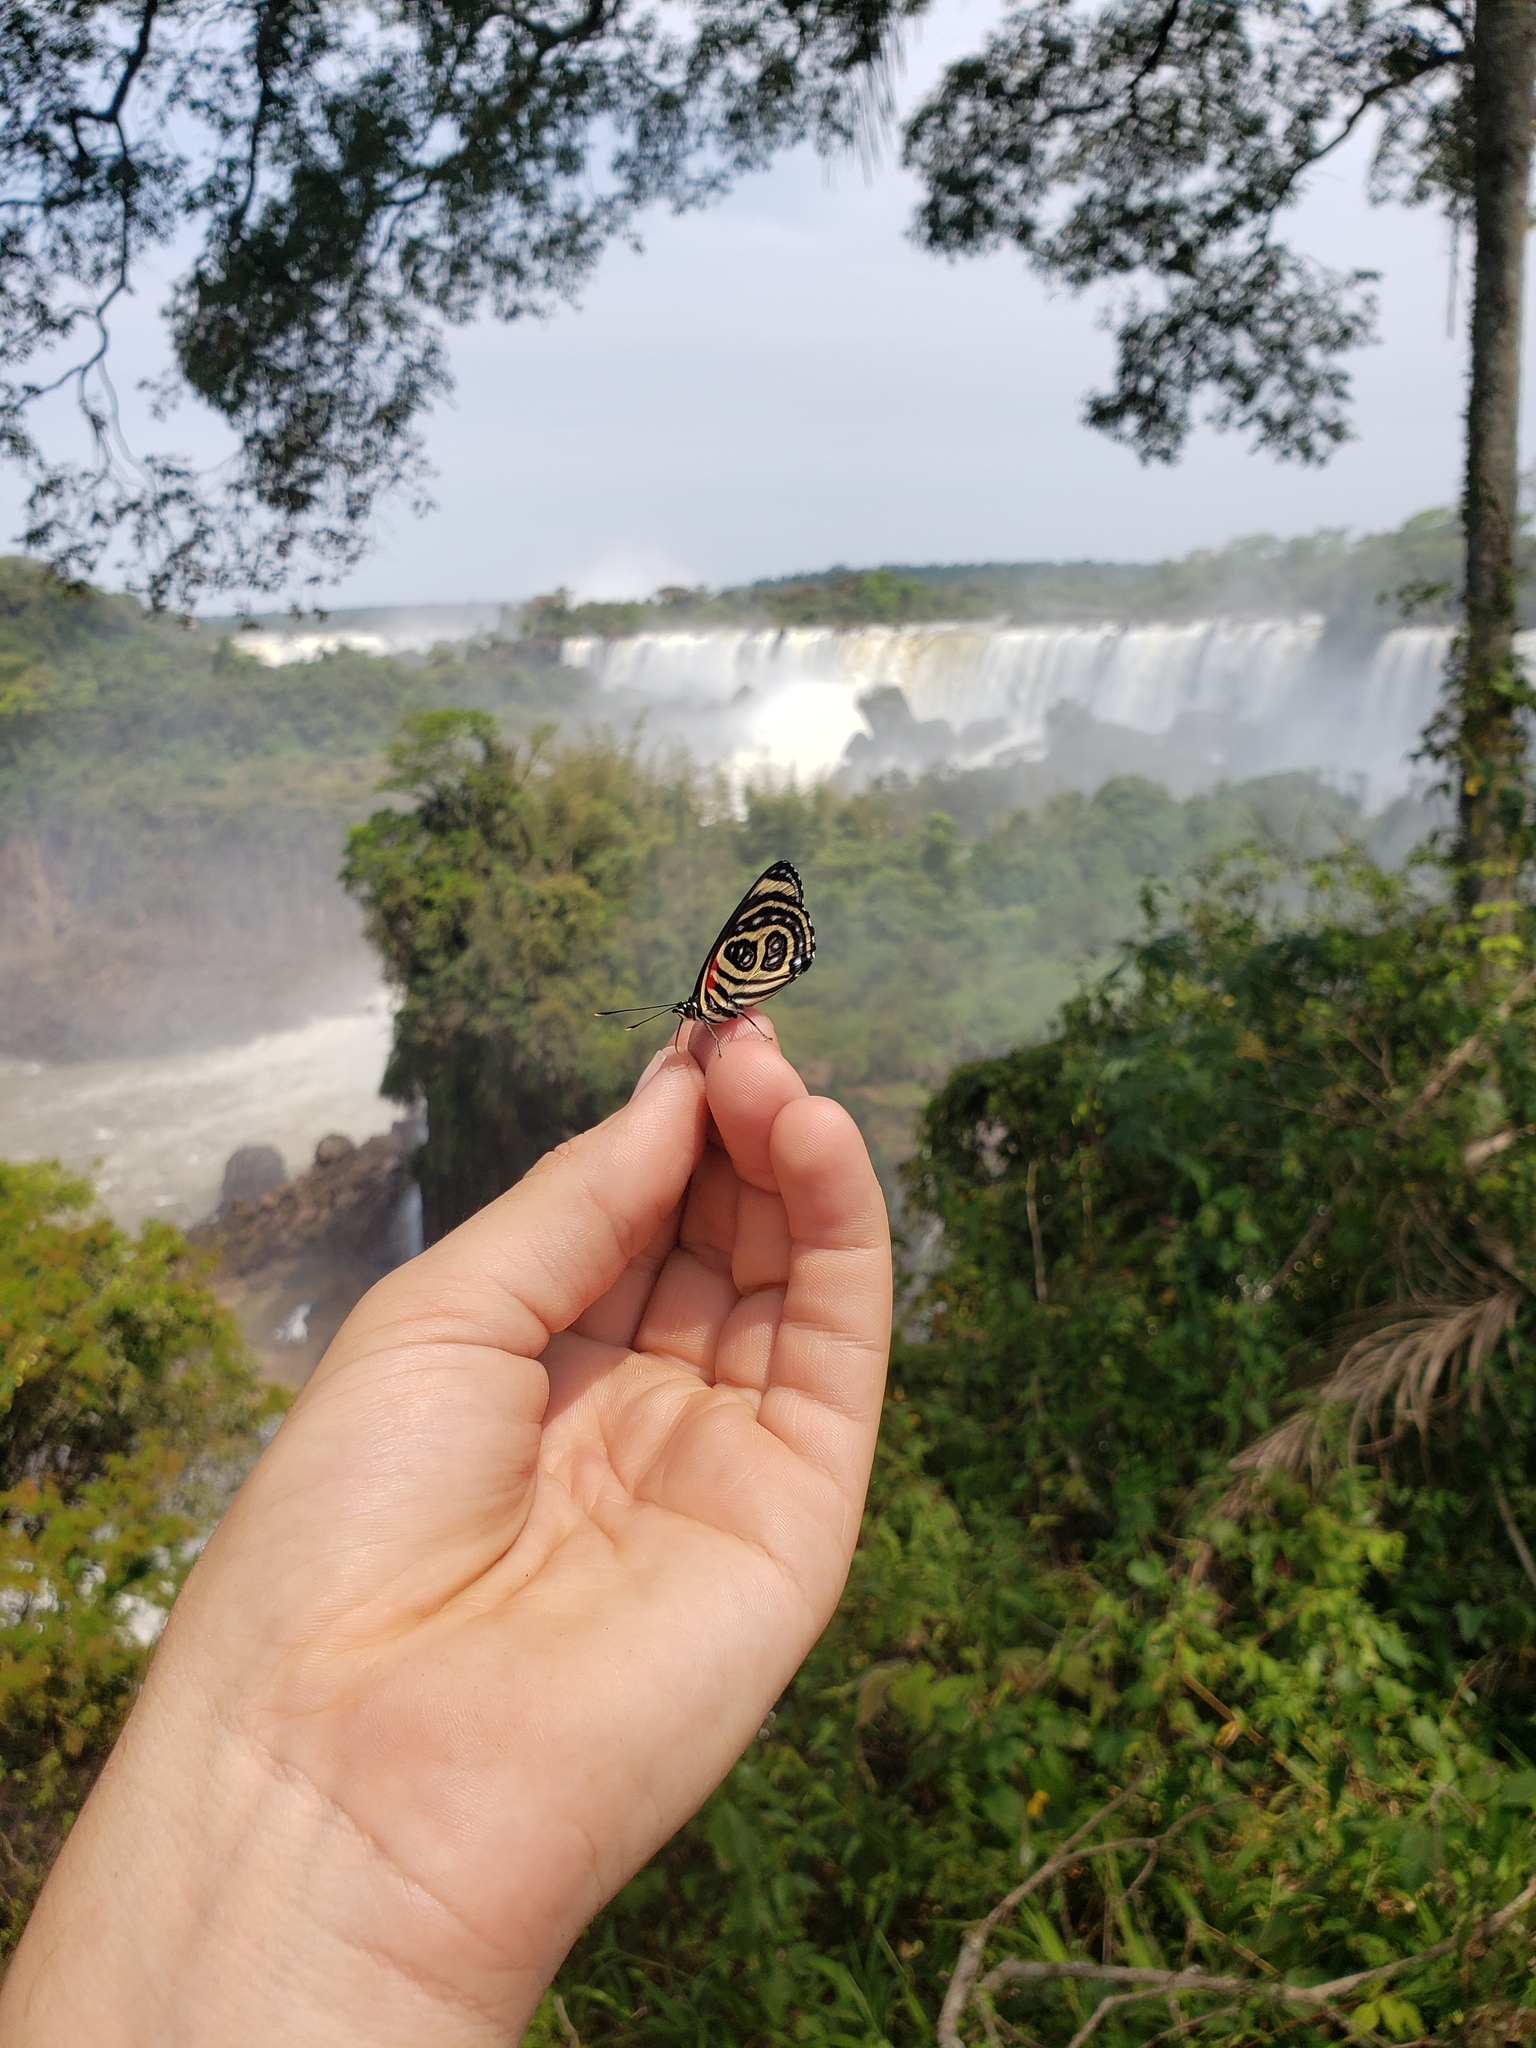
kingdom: Animalia
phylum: Arthropoda
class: Insecta
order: Lepidoptera
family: Nymphalidae
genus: Catagramma
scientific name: Catagramma pygas
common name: Godart's numberwing
